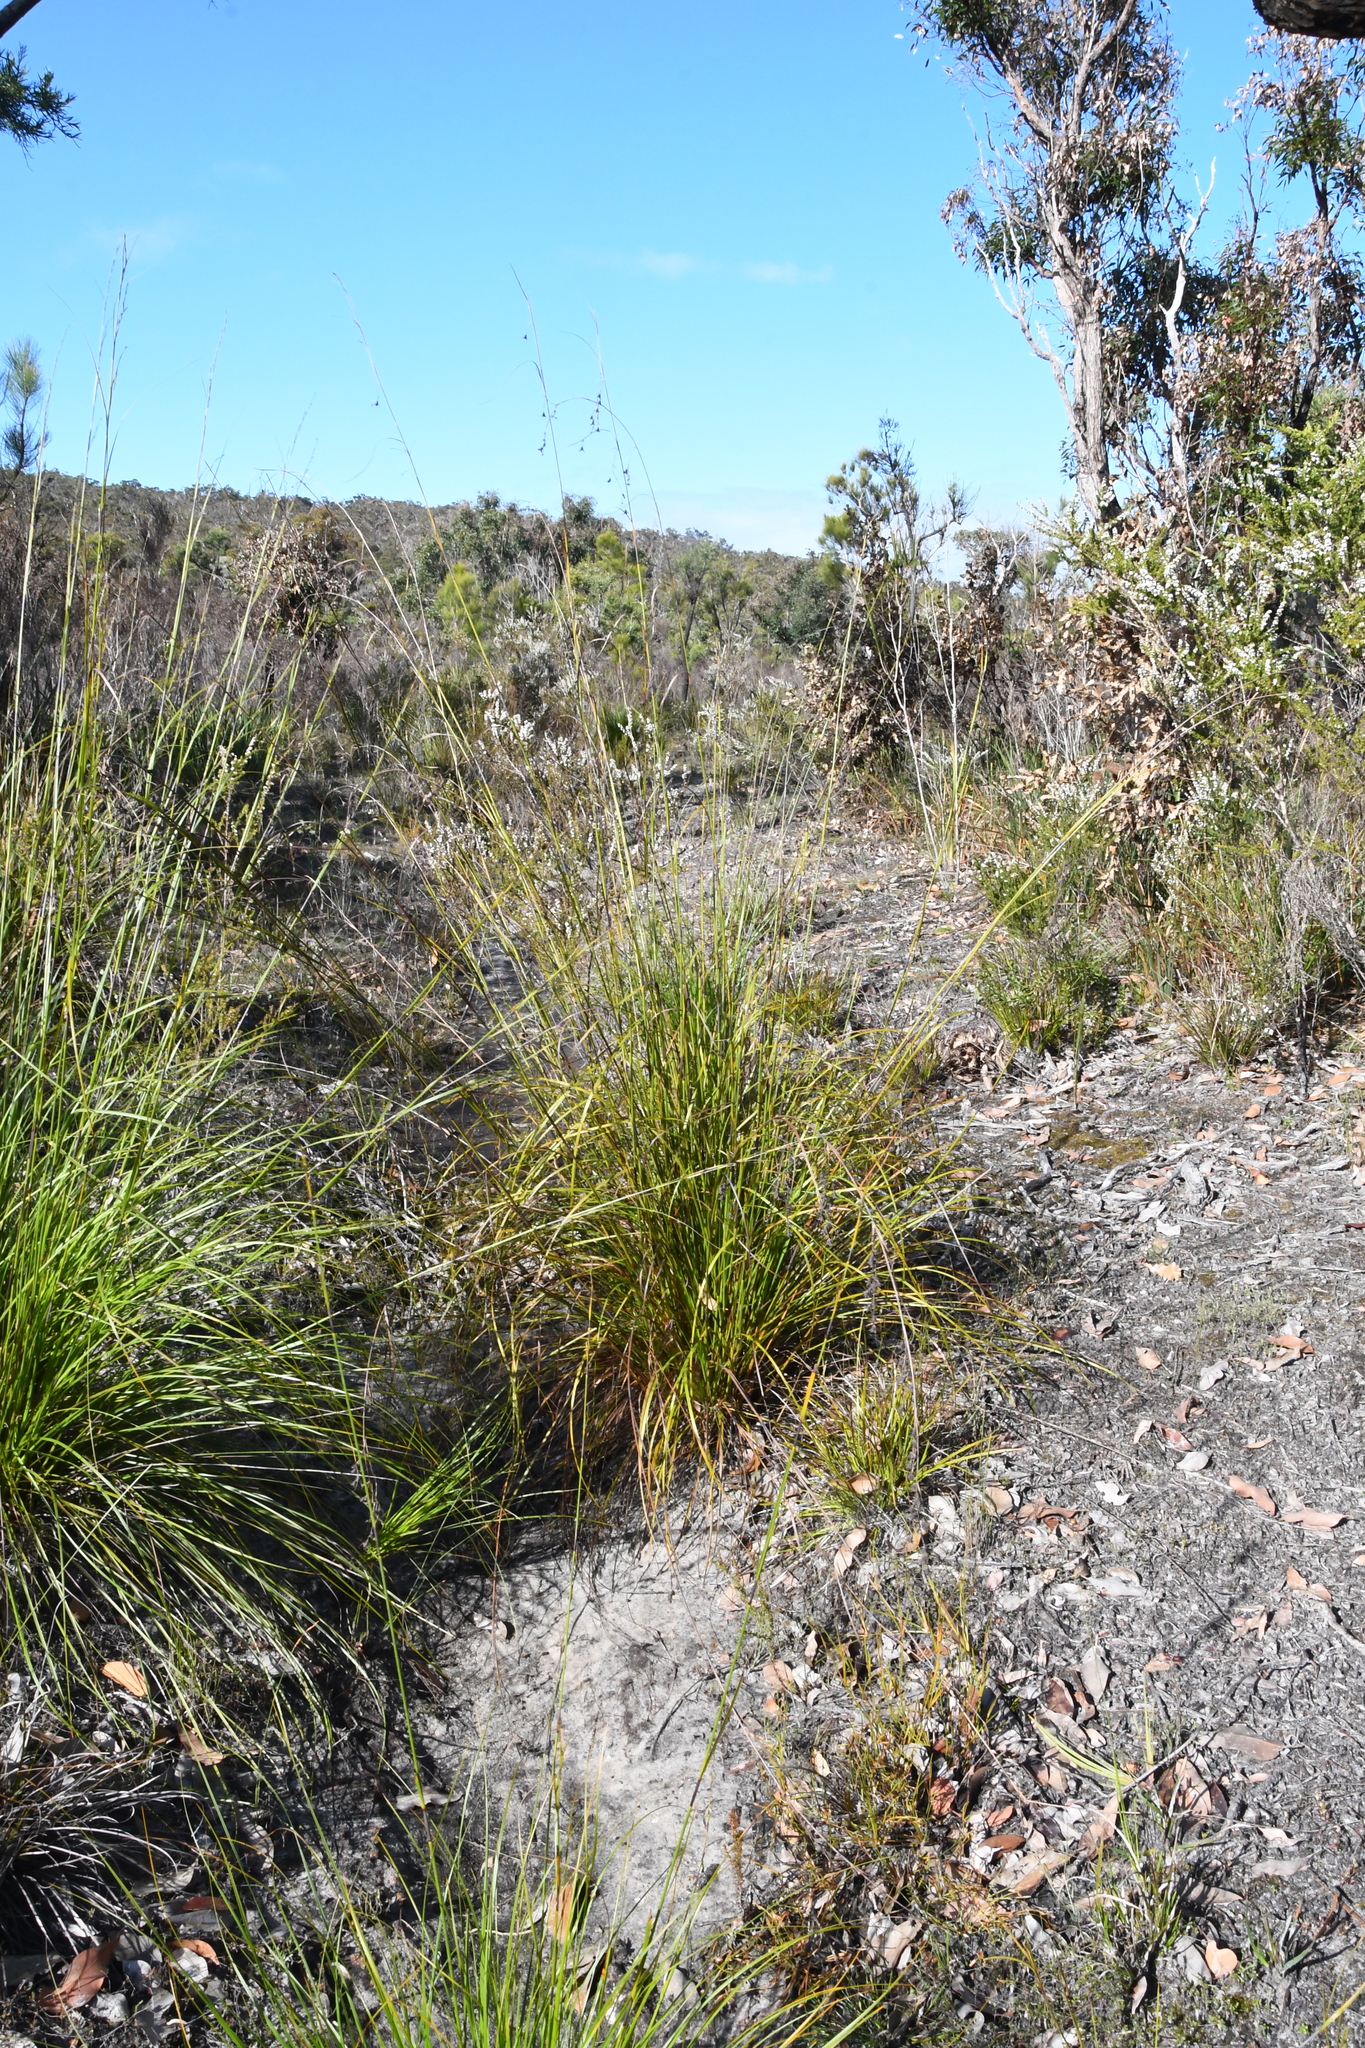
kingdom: Plantae
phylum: Tracheophyta
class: Liliopsida
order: Poales
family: Cyperaceae
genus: Evandra
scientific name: Evandra aristata
